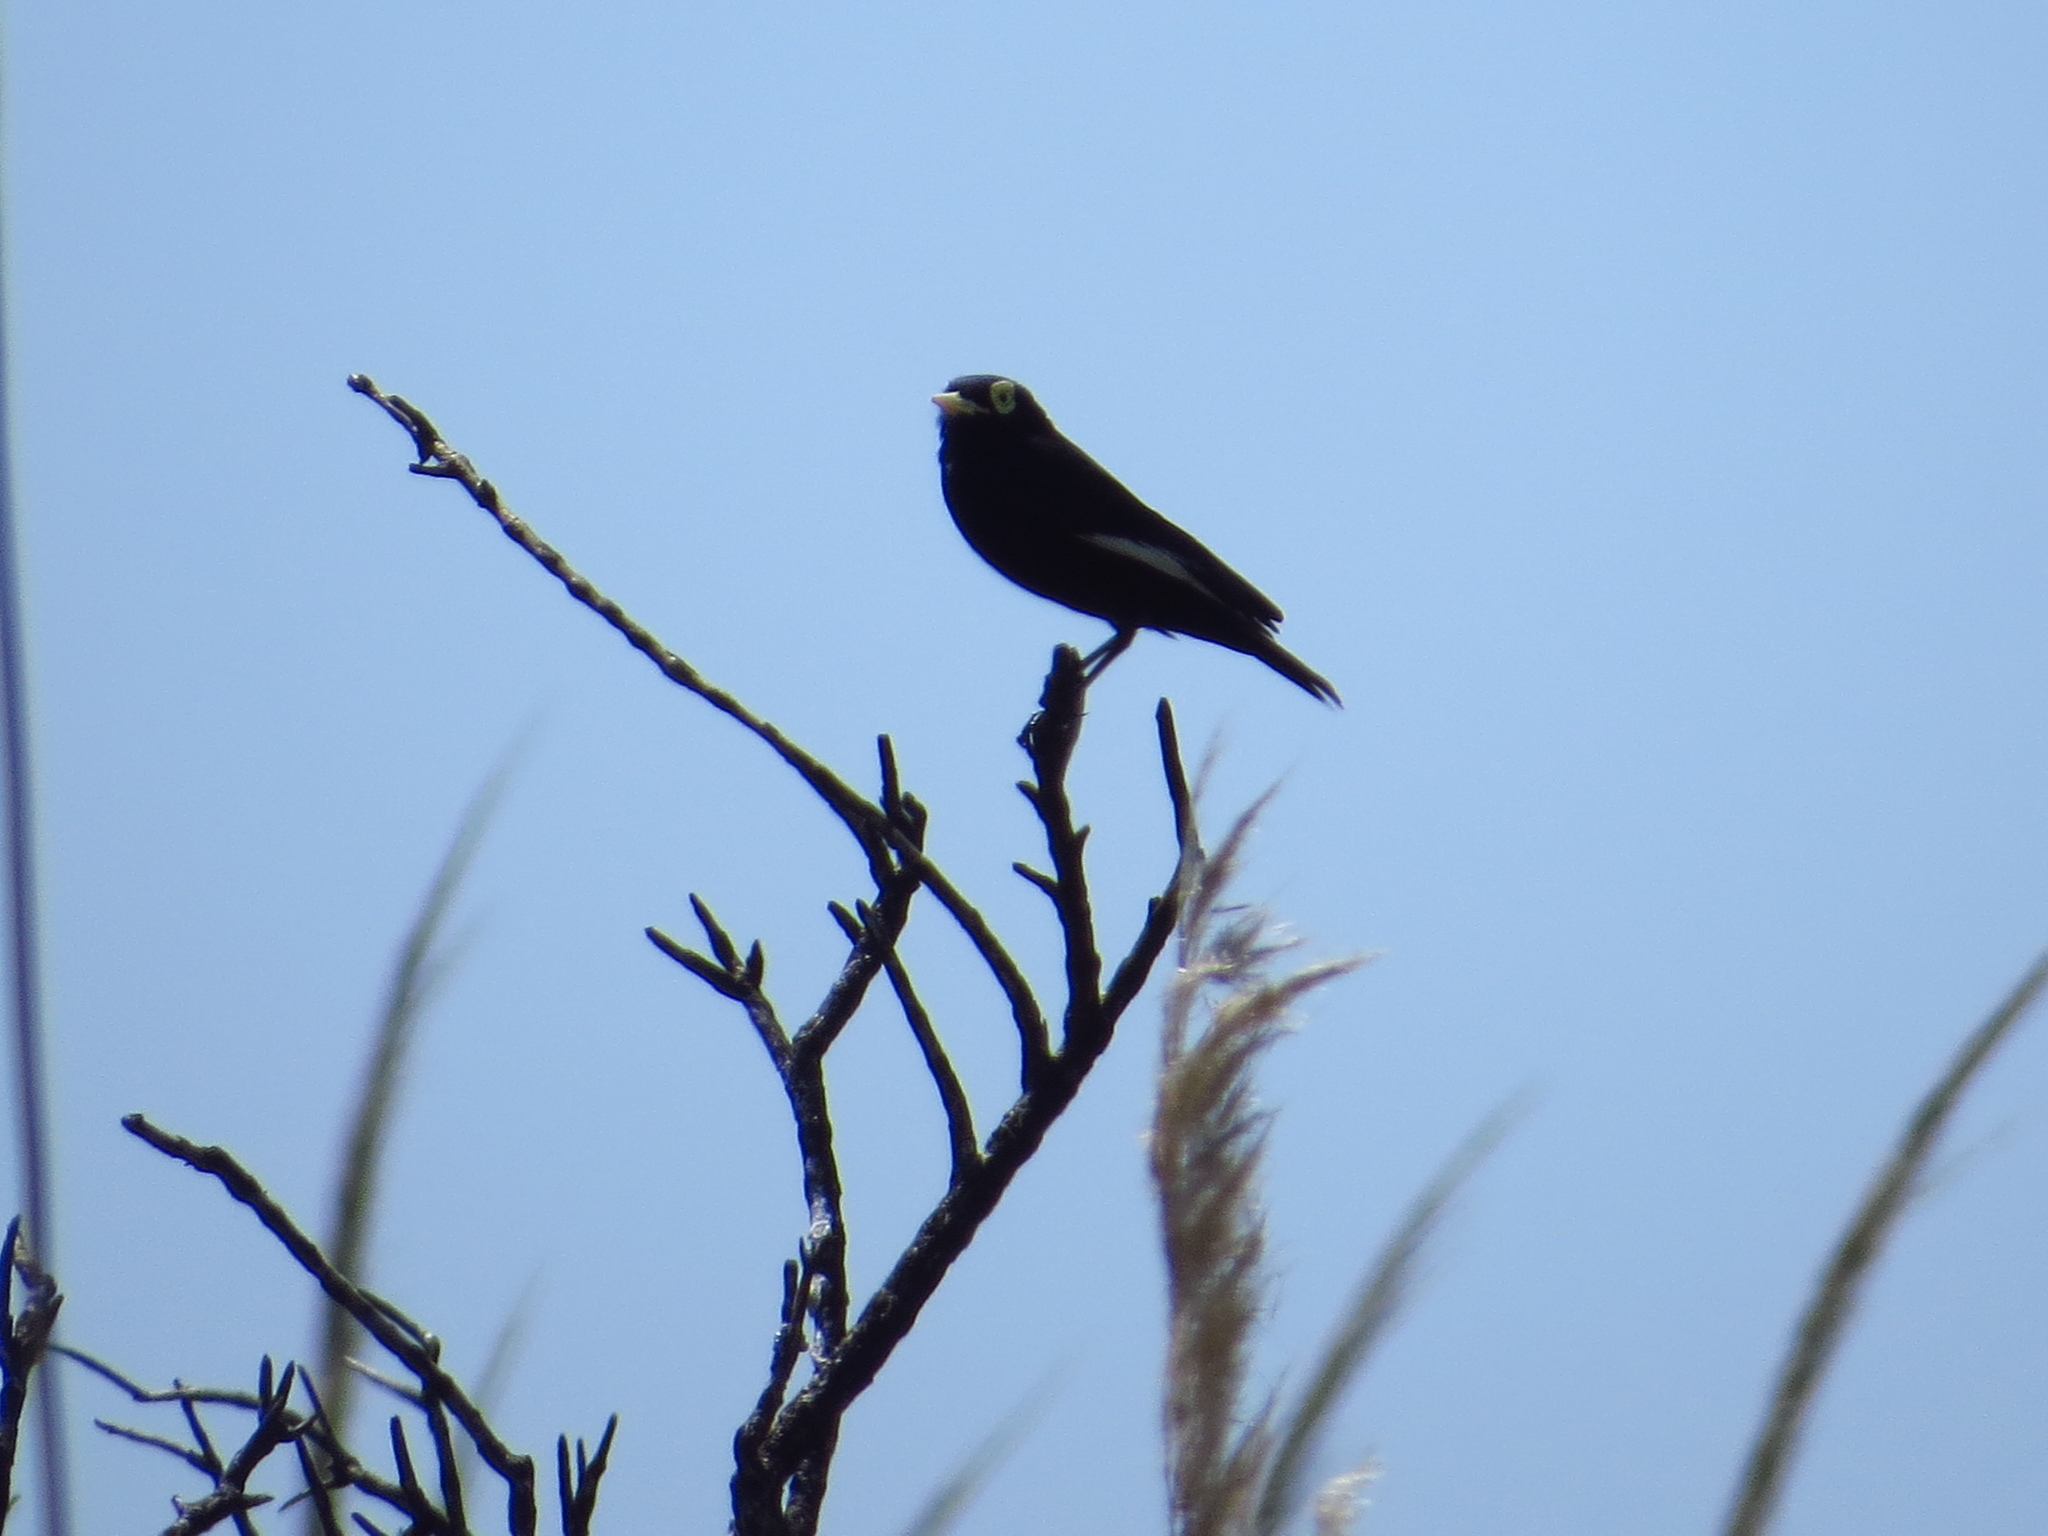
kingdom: Animalia
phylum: Chordata
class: Aves
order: Passeriformes
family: Tyrannidae
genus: Hymenops
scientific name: Hymenops perspicillatus
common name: Spectacled tyrant
